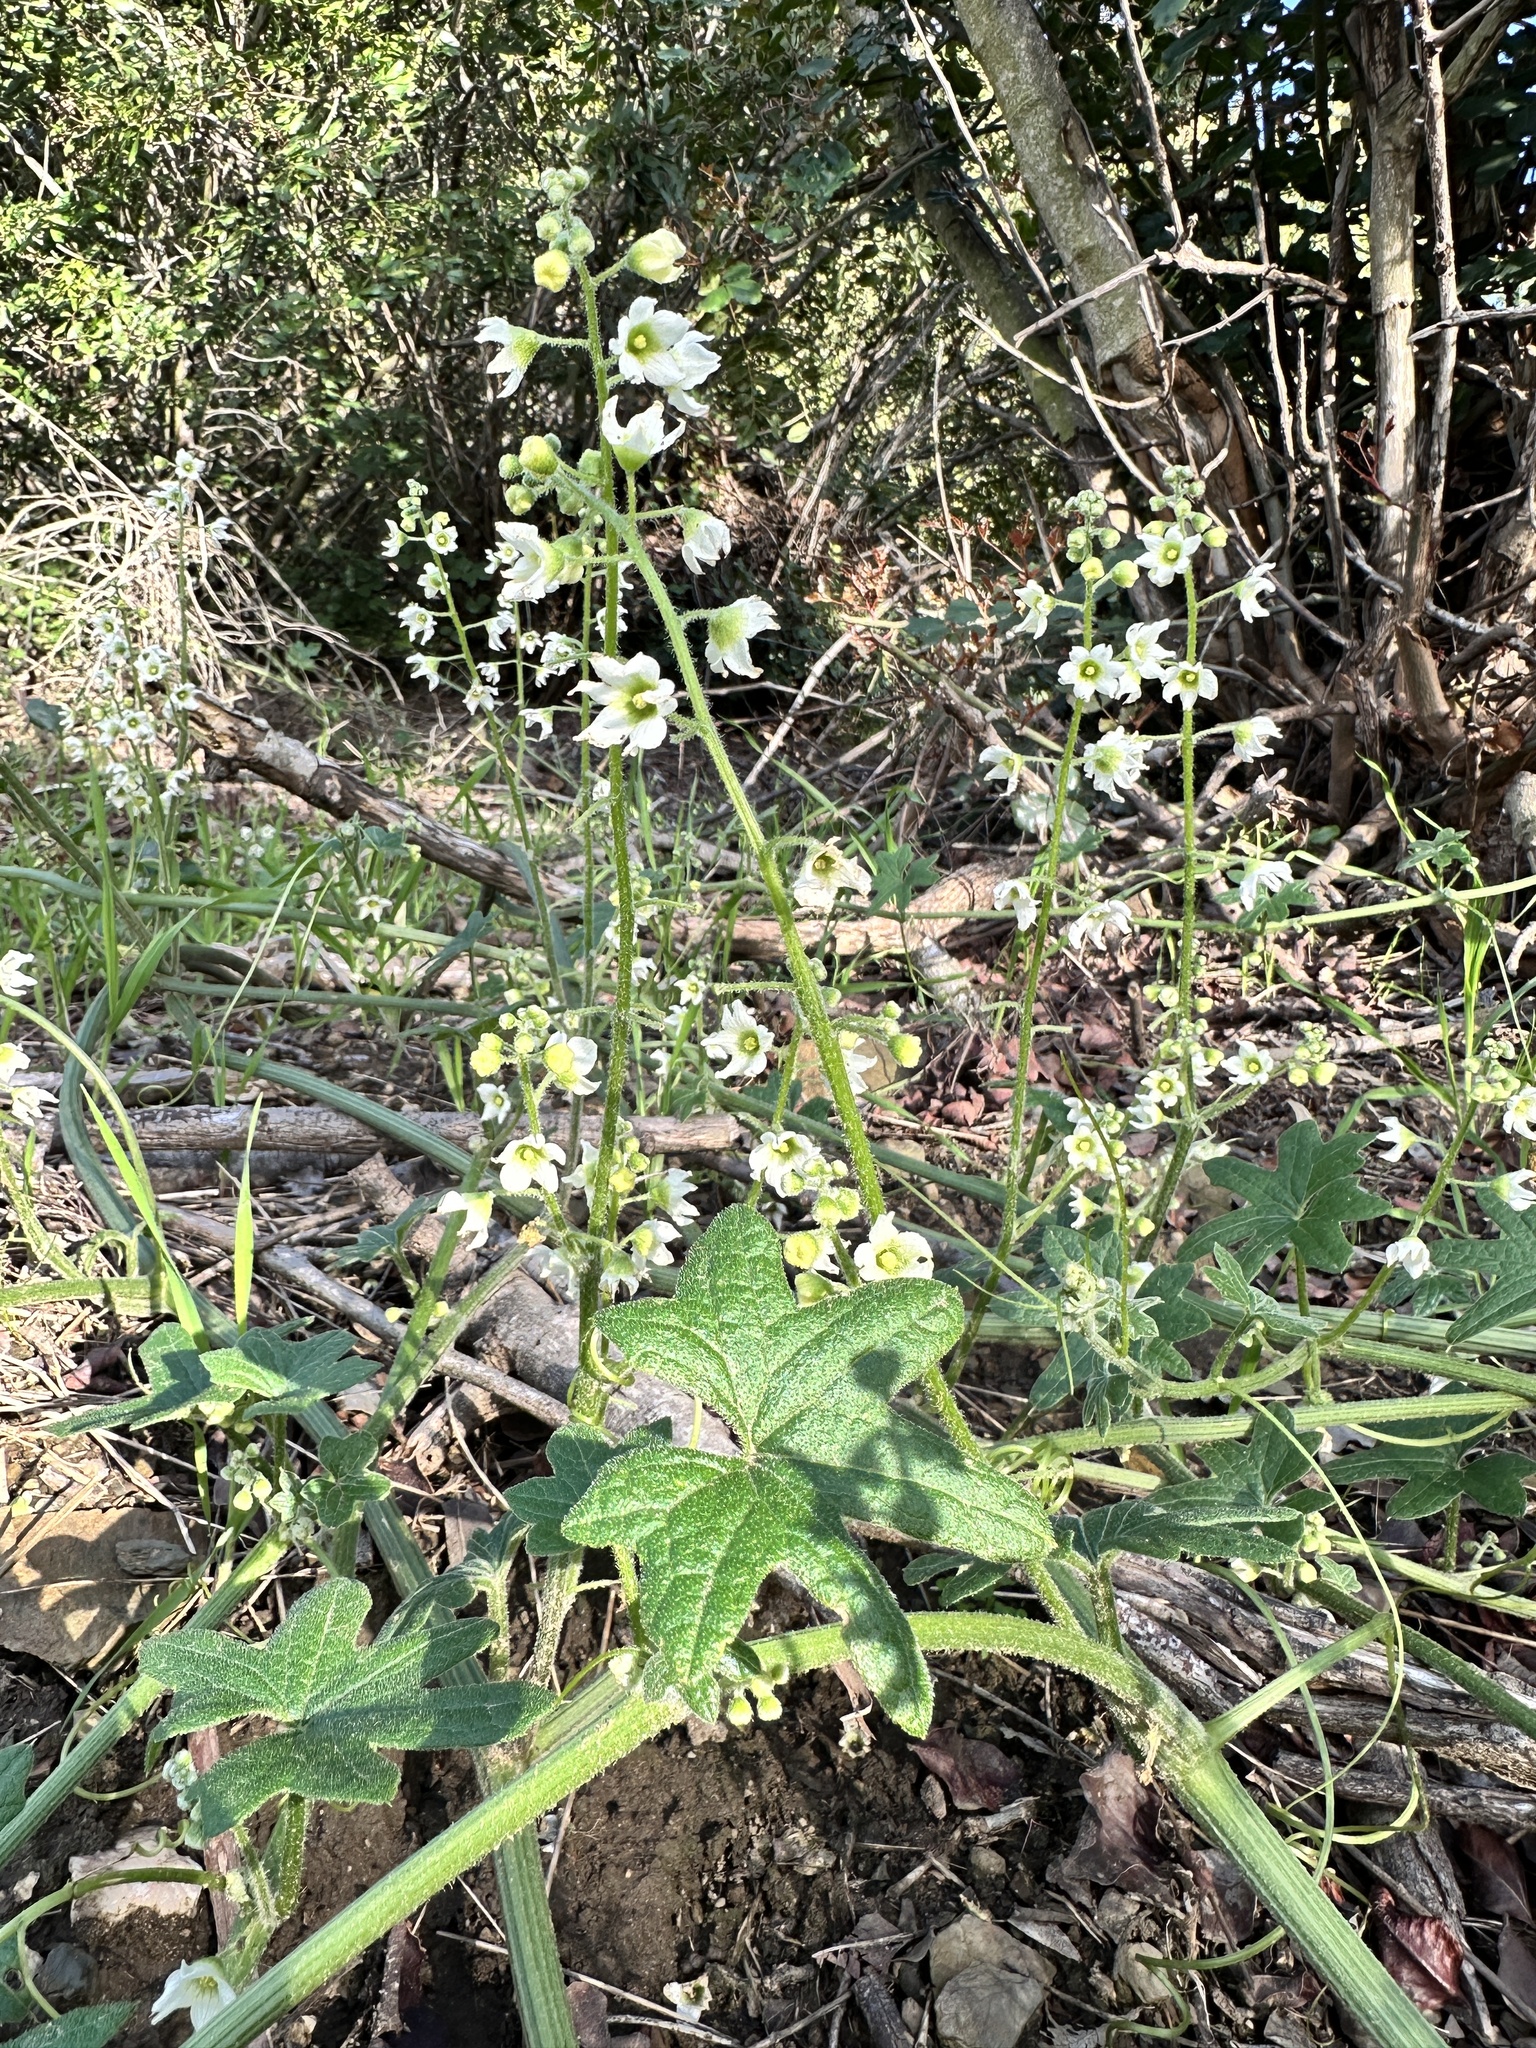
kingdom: Plantae
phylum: Tracheophyta
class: Magnoliopsida
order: Cucurbitales
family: Cucurbitaceae
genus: Marah
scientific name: Marah macrocarpa
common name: Cucamonga manroot
